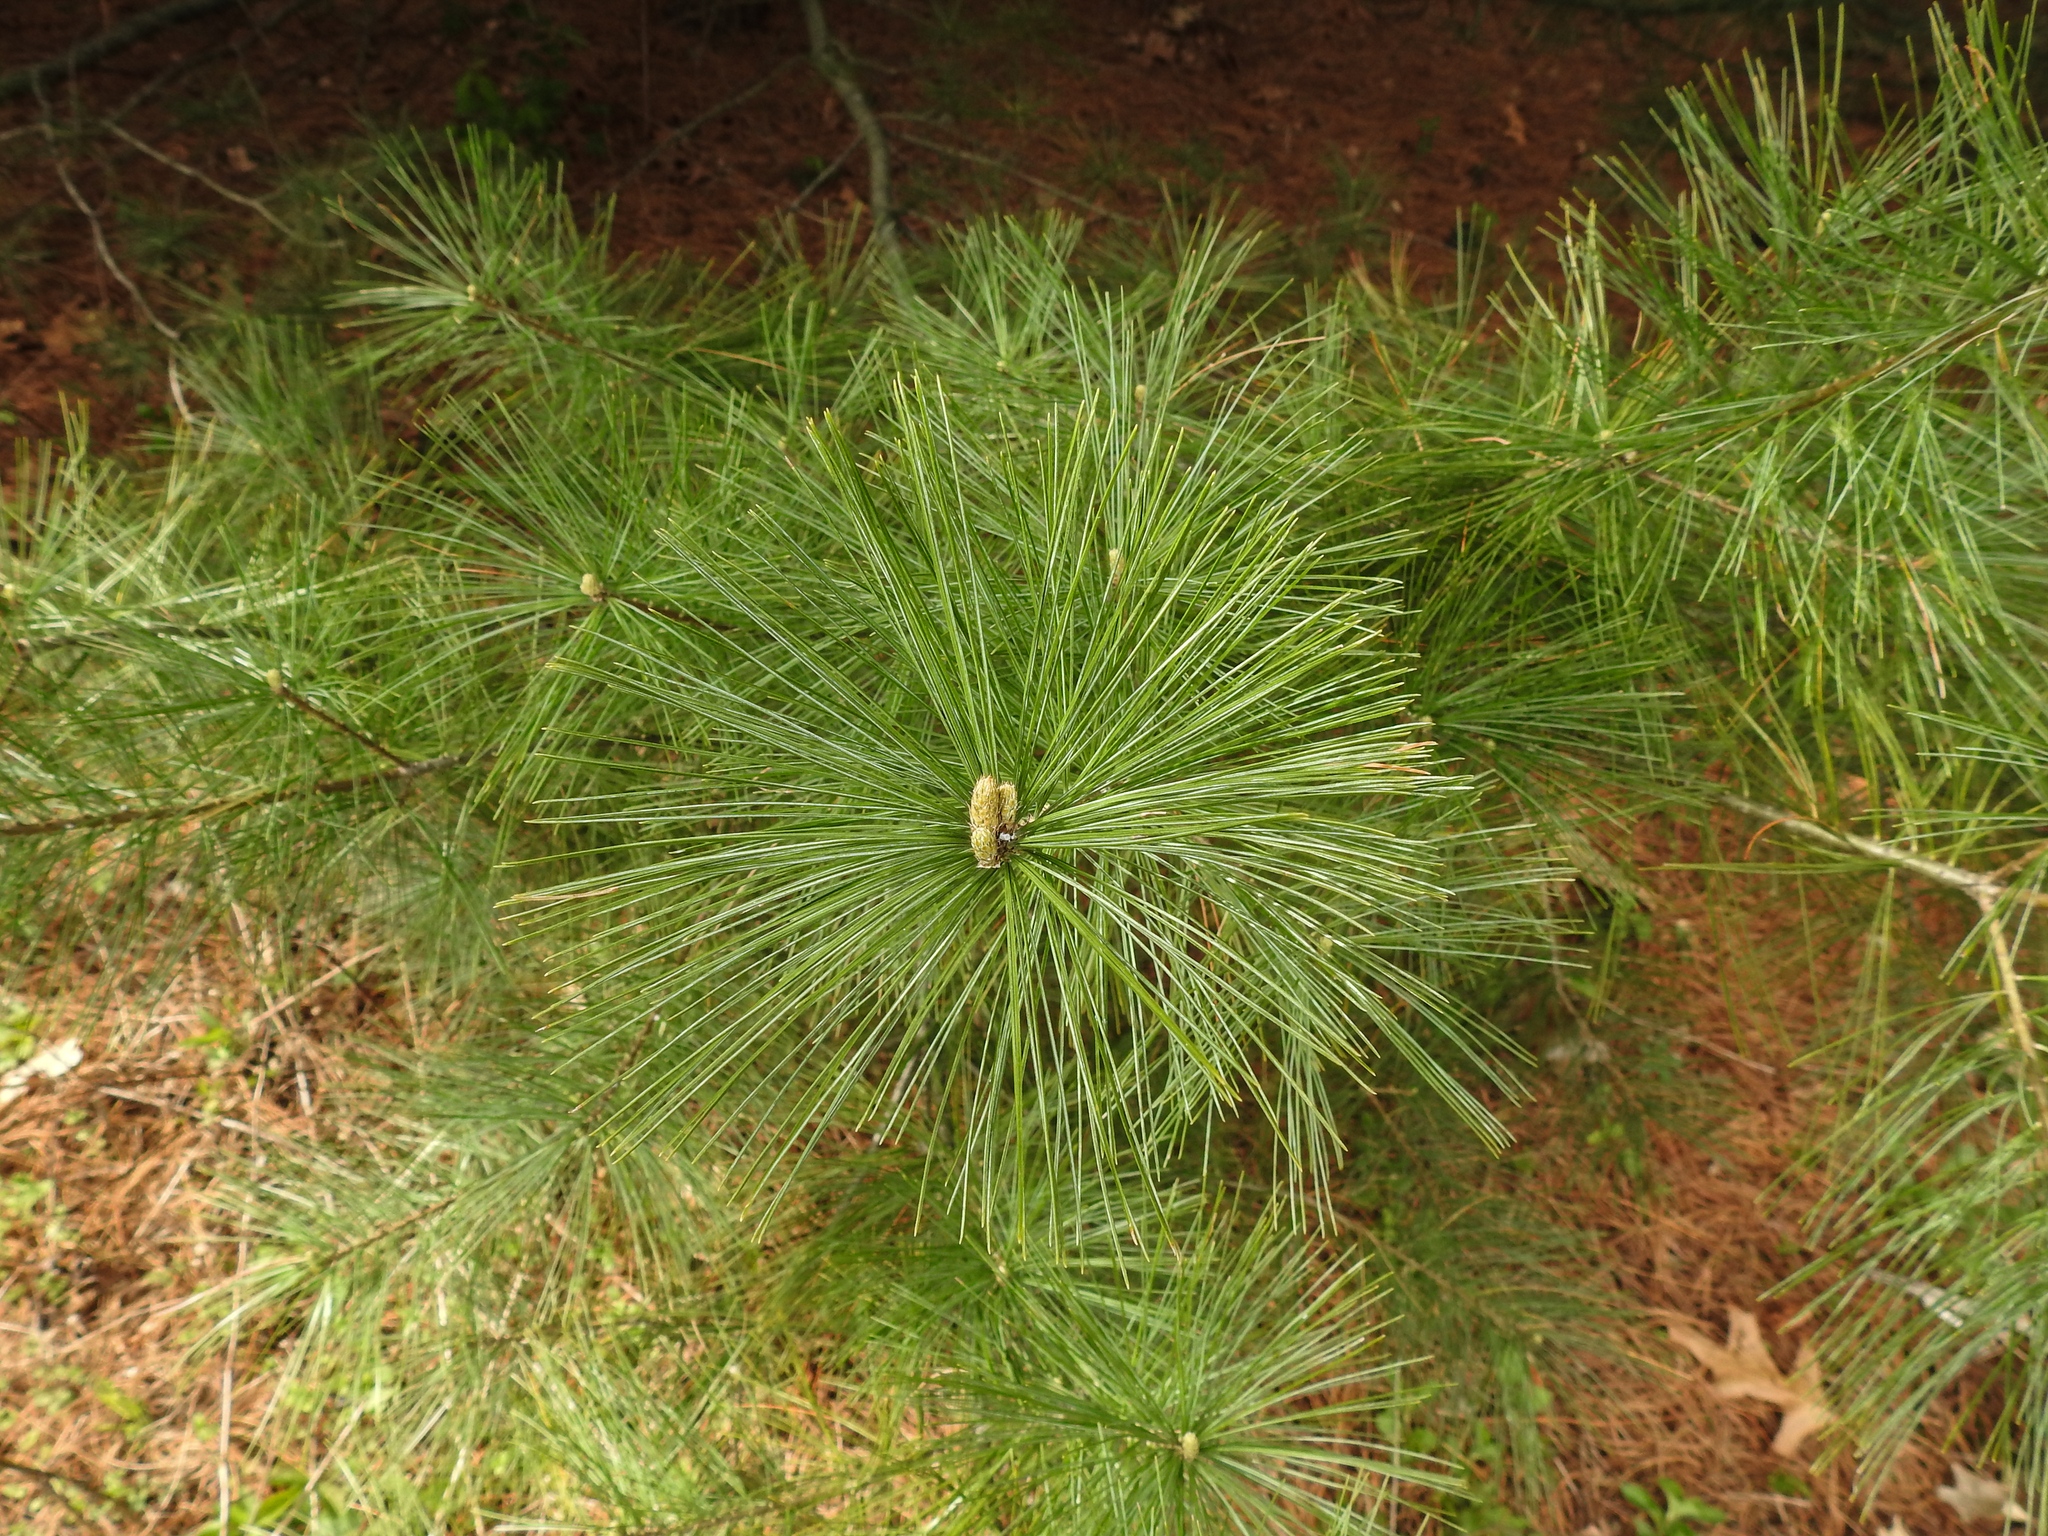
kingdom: Plantae
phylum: Tracheophyta
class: Pinopsida
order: Pinales
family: Pinaceae
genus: Pinus
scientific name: Pinus strobus
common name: Weymouth pine
